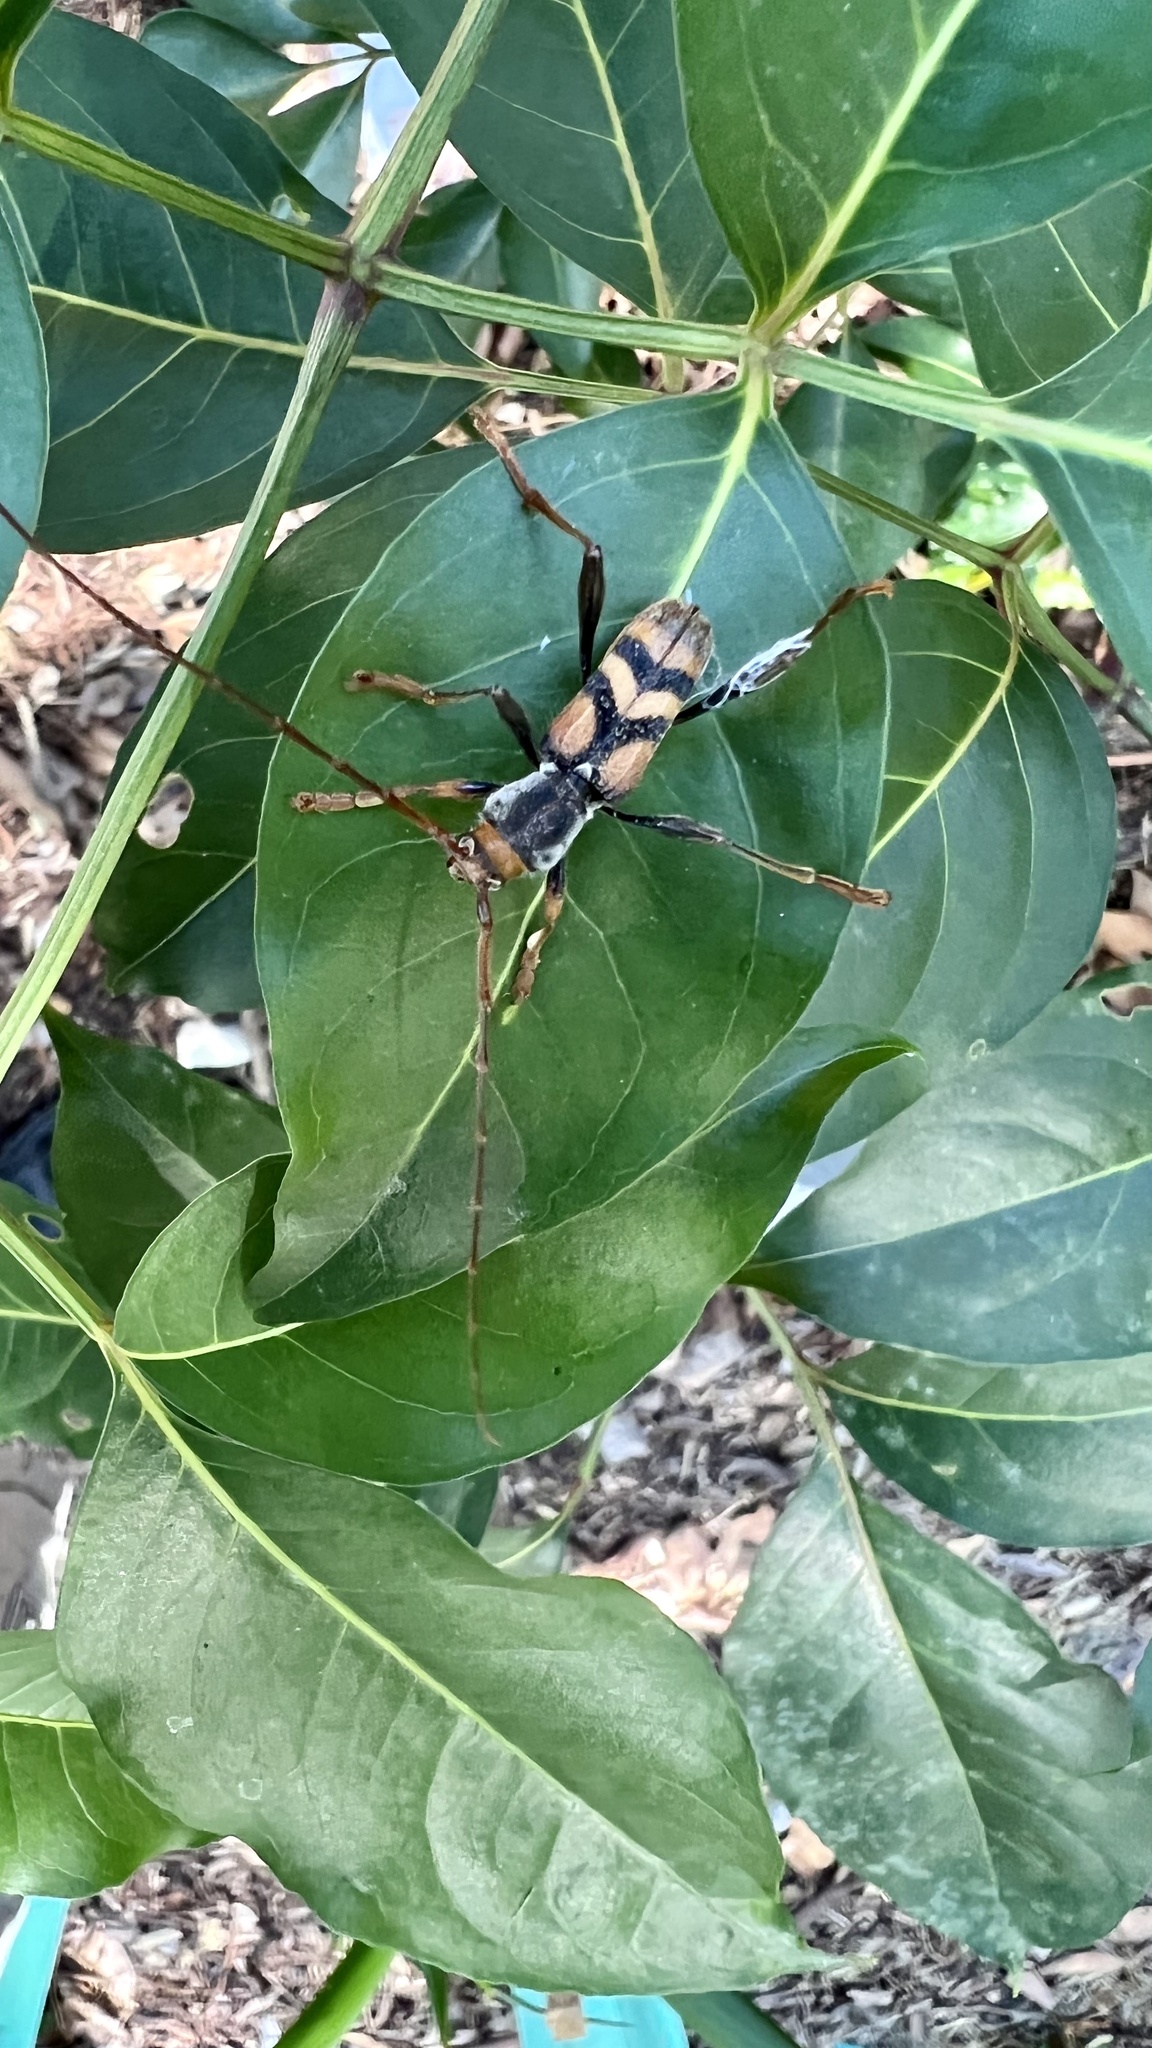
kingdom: Animalia
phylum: Arthropoda
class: Insecta
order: Coleoptera
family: Cerambycidae
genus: Aridaeus
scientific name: Aridaeus thoracicus
